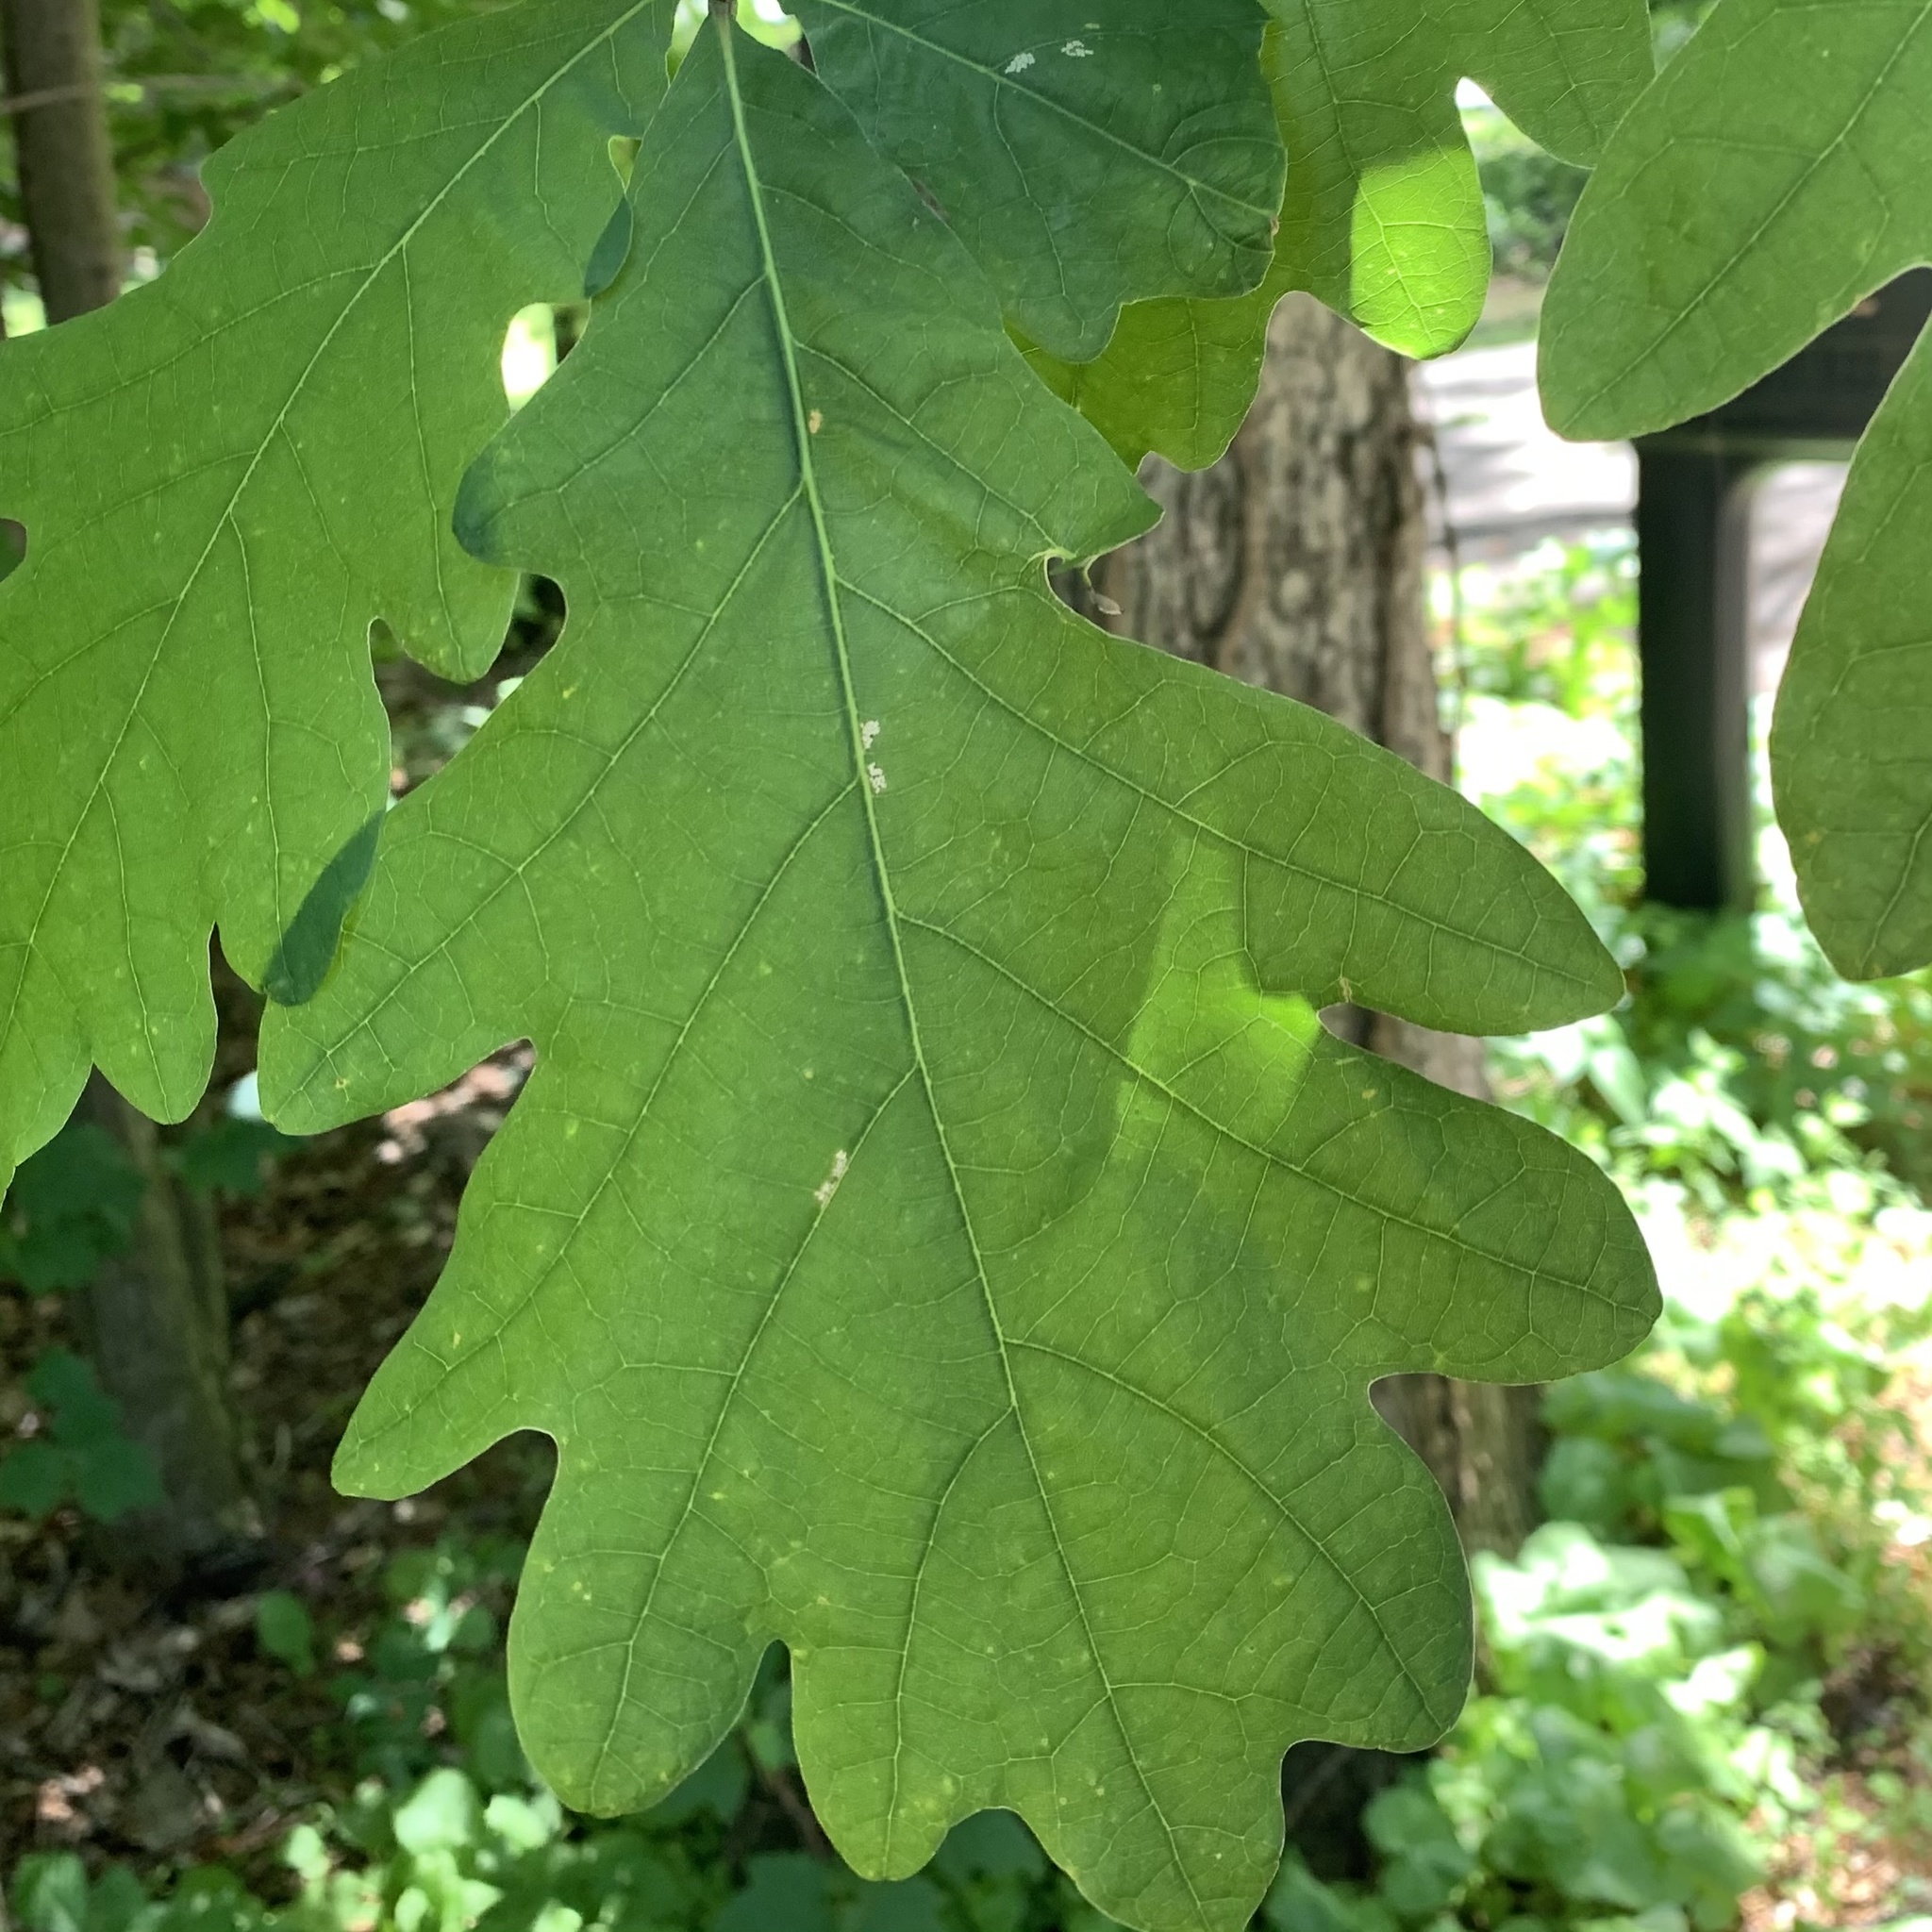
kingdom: Animalia
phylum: Arthropoda
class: Insecta
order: Hymenoptera
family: Cynipidae
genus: Andricus
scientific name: Andricus
